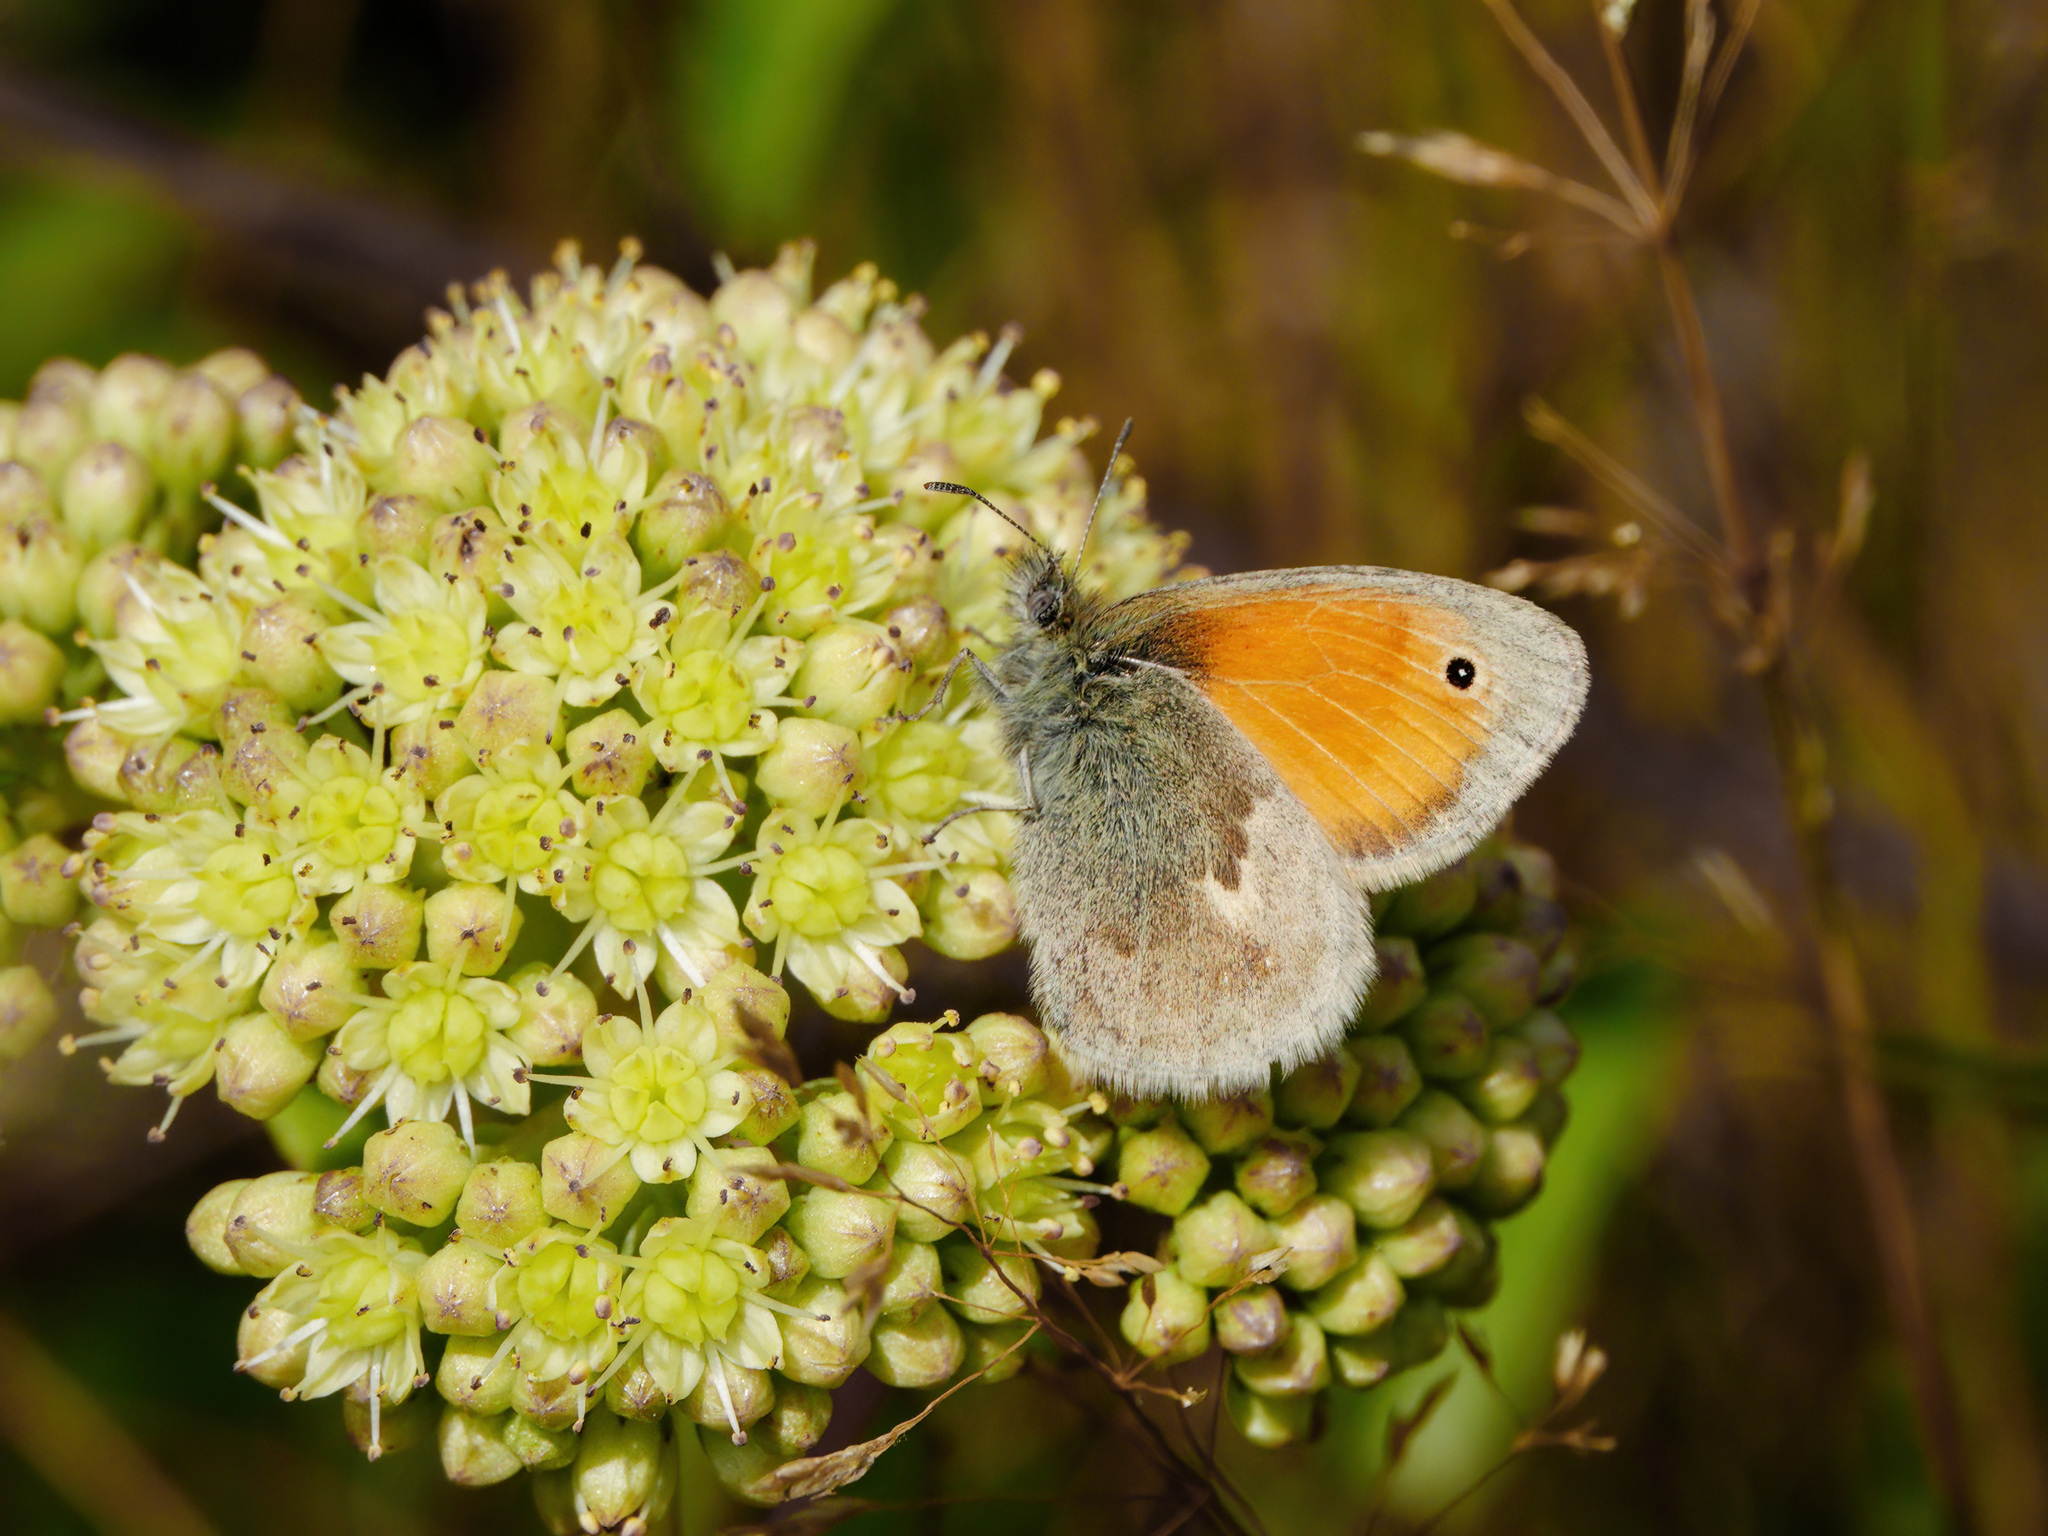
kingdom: Animalia
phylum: Arthropoda
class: Insecta
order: Lepidoptera
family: Nymphalidae
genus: Coenonympha
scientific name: Coenonympha pamphilus
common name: Small heath
